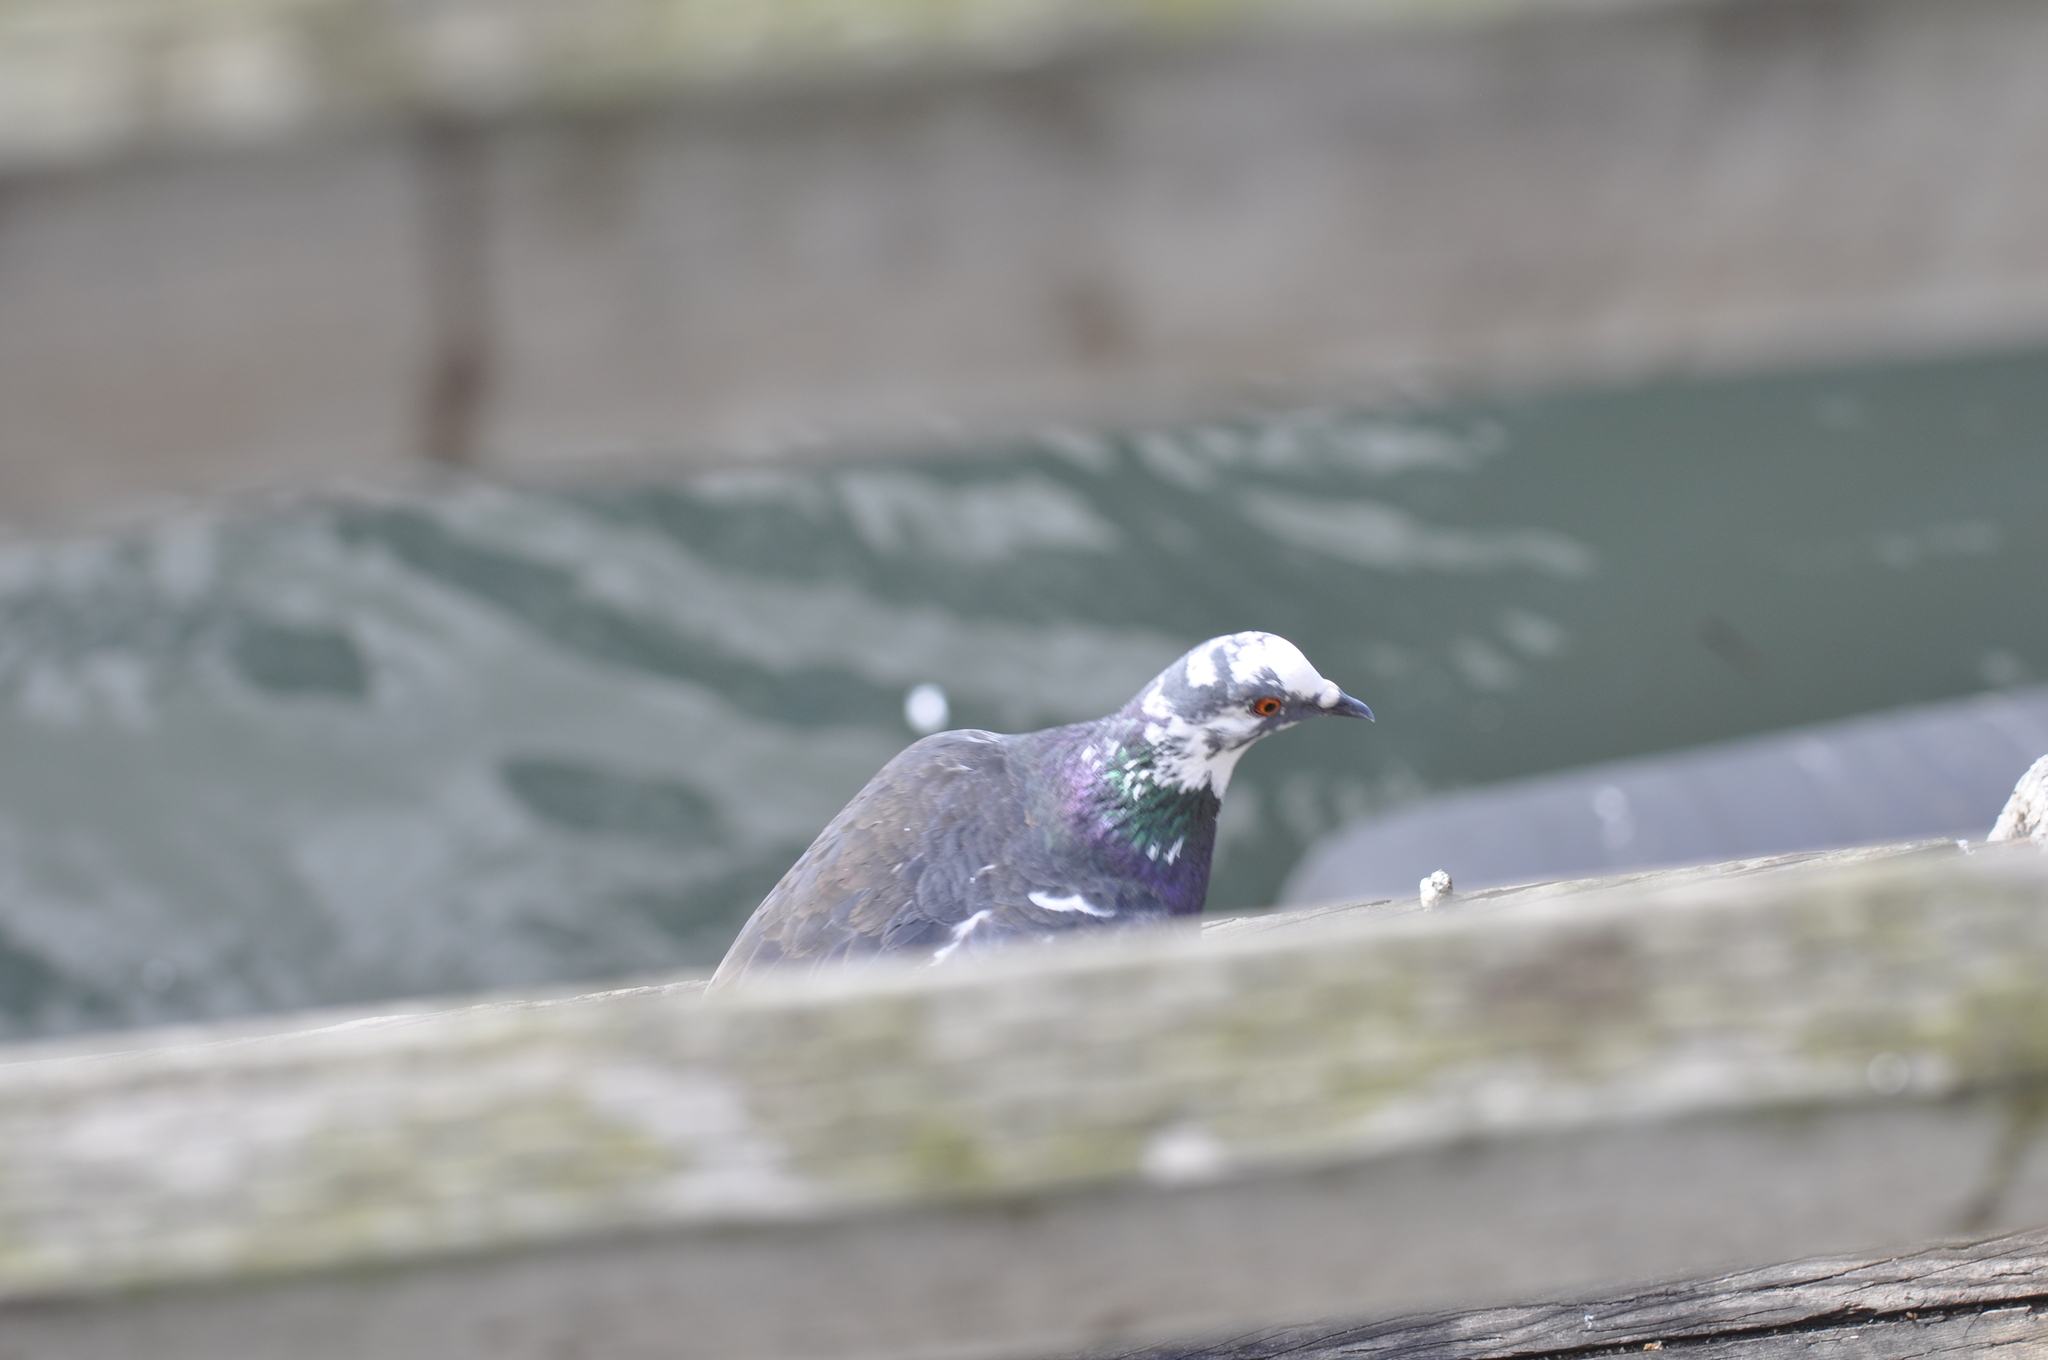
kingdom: Animalia
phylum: Chordata
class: Aves
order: Columbiformes
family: Columbidae
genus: Columba
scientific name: Columba livia
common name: Rock pigeon
